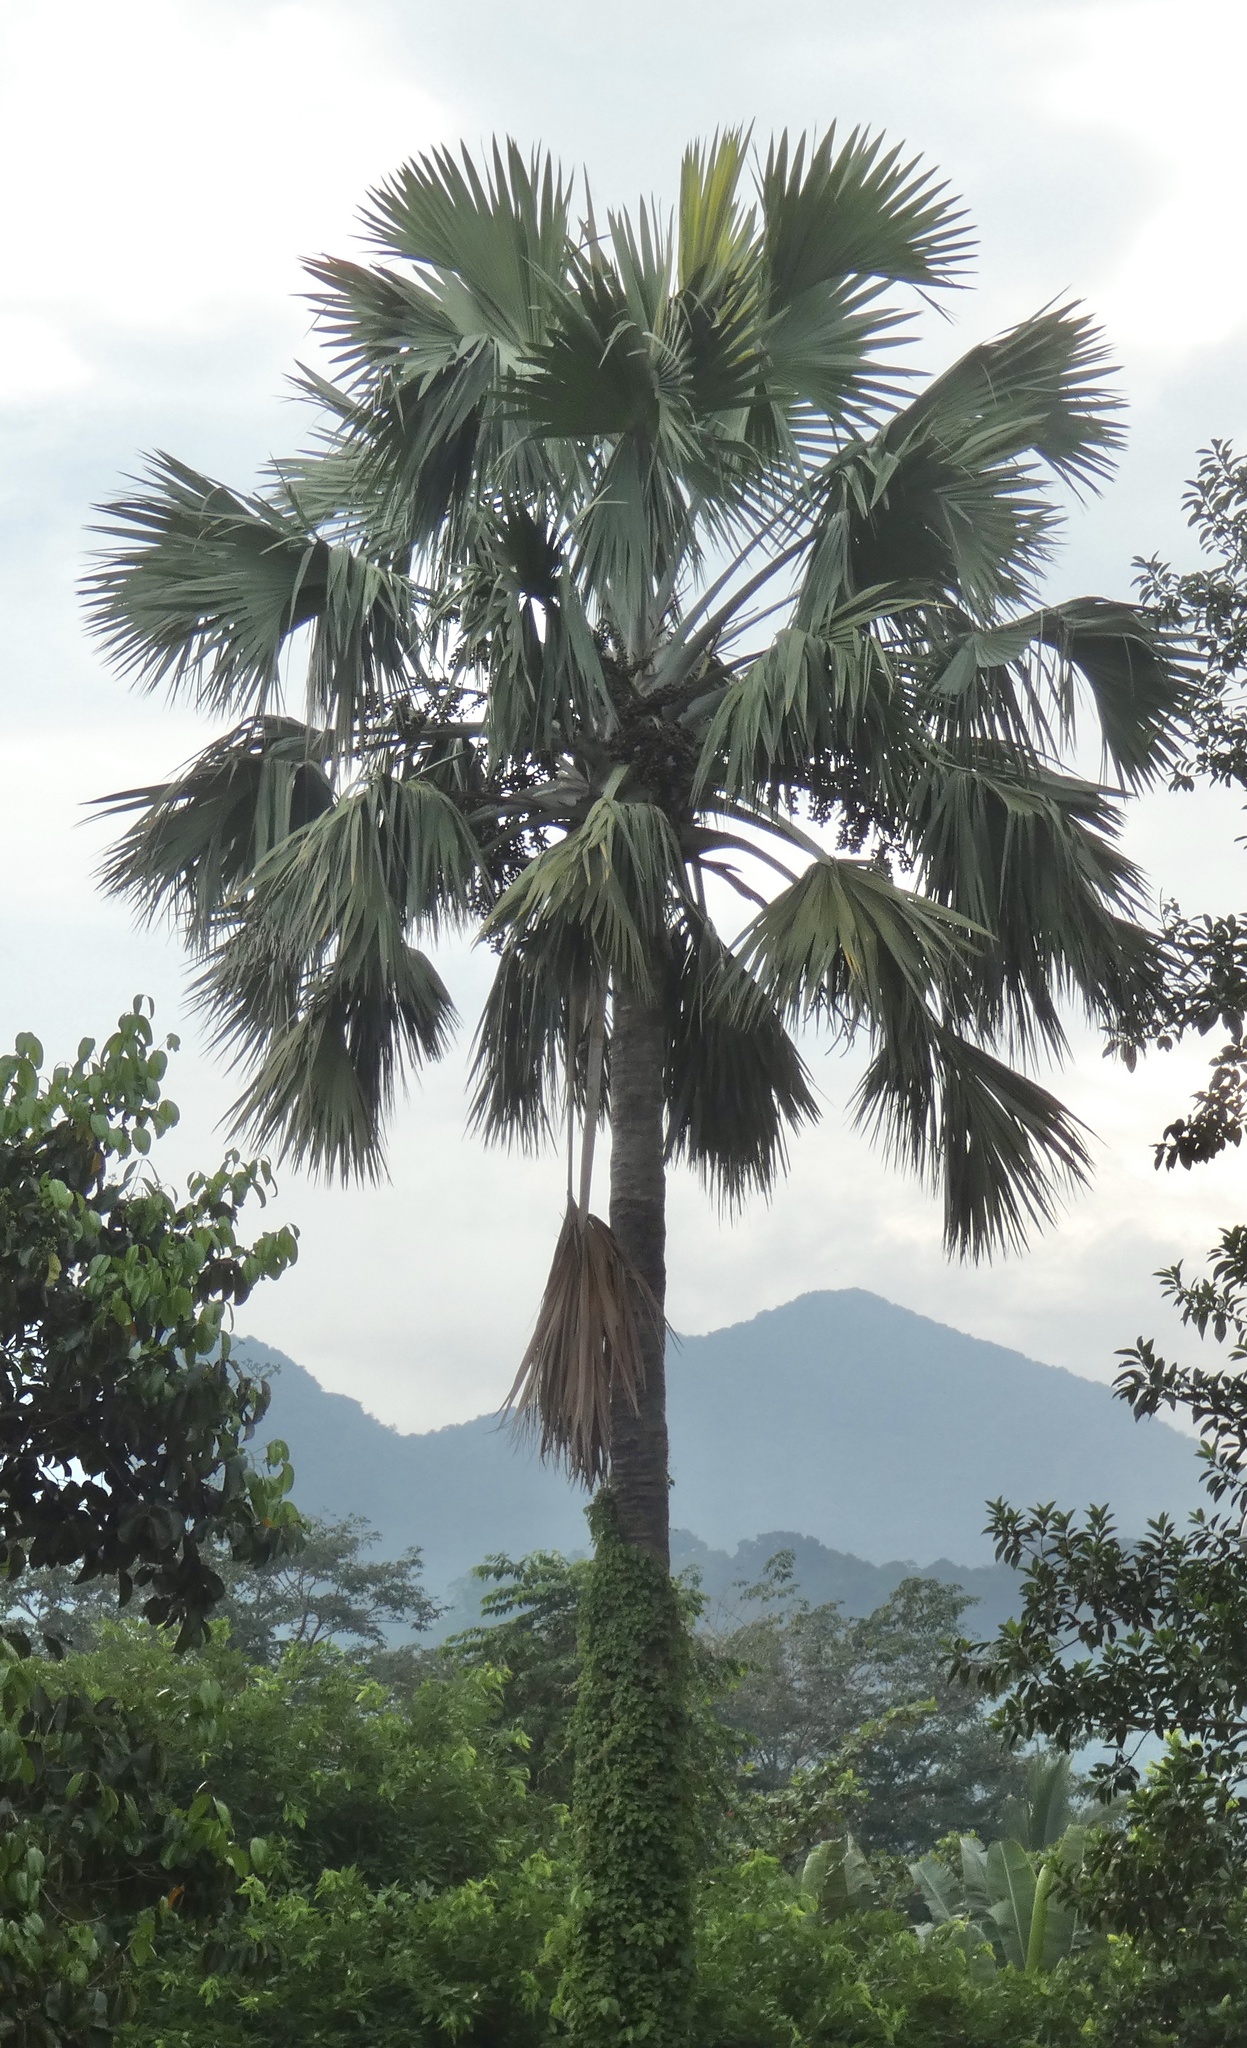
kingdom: Plantae
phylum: Tracheophyta
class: Liliopsida
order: Arecales
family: Arecaceae
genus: Borassus
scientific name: Borassus flabellifer
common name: Palmyra palm
